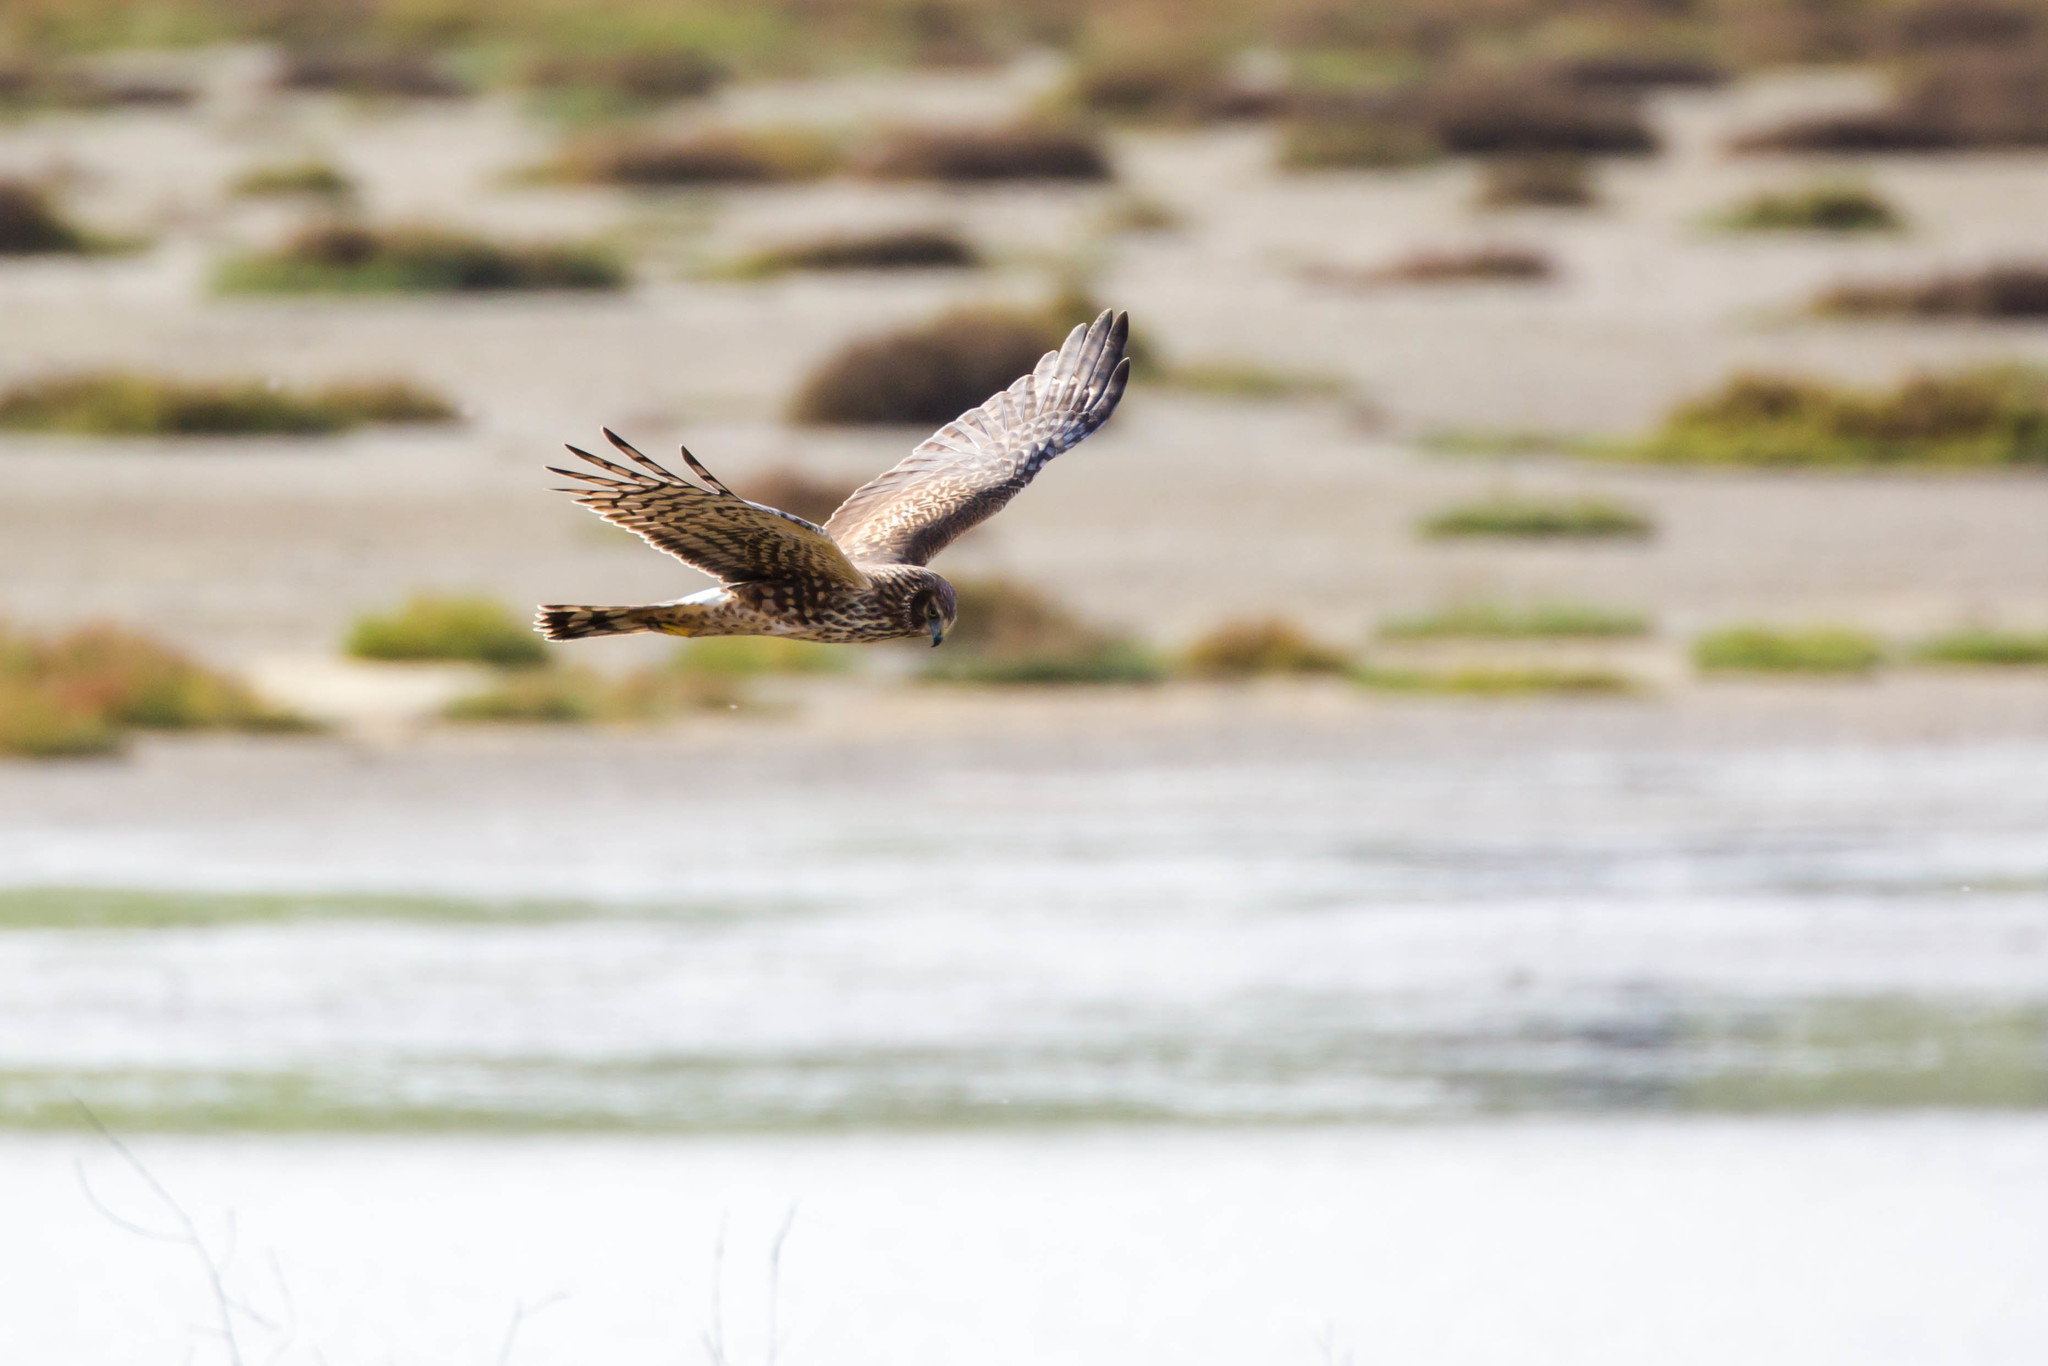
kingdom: Animalia
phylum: Chordata
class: Aves
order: Accipitriformes
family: Accipitridae
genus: Circus
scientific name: Circus cyaneus
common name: Hen harrier
